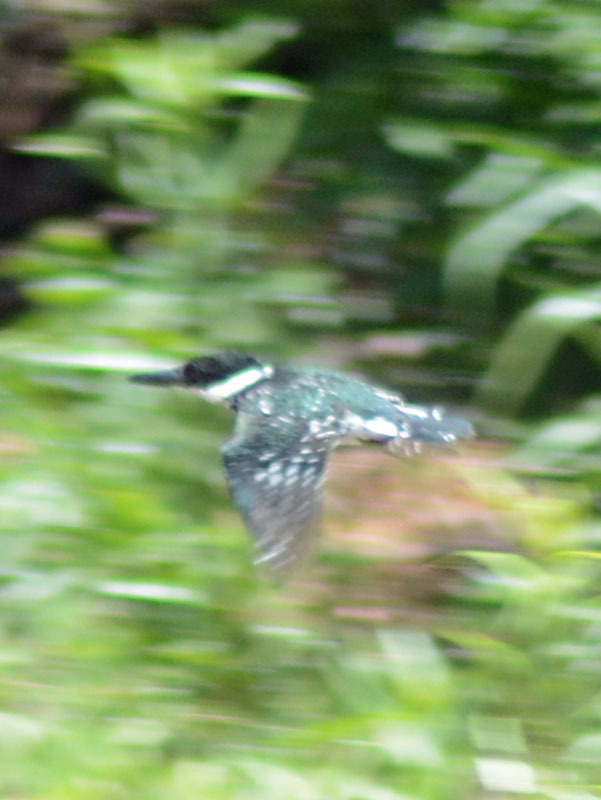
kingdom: Animalia
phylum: Chordata
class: Aves
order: Coraciiformes
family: Alcedinidae
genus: Chloroceryle
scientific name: Chloroceryle americana
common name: Green kingfisher
